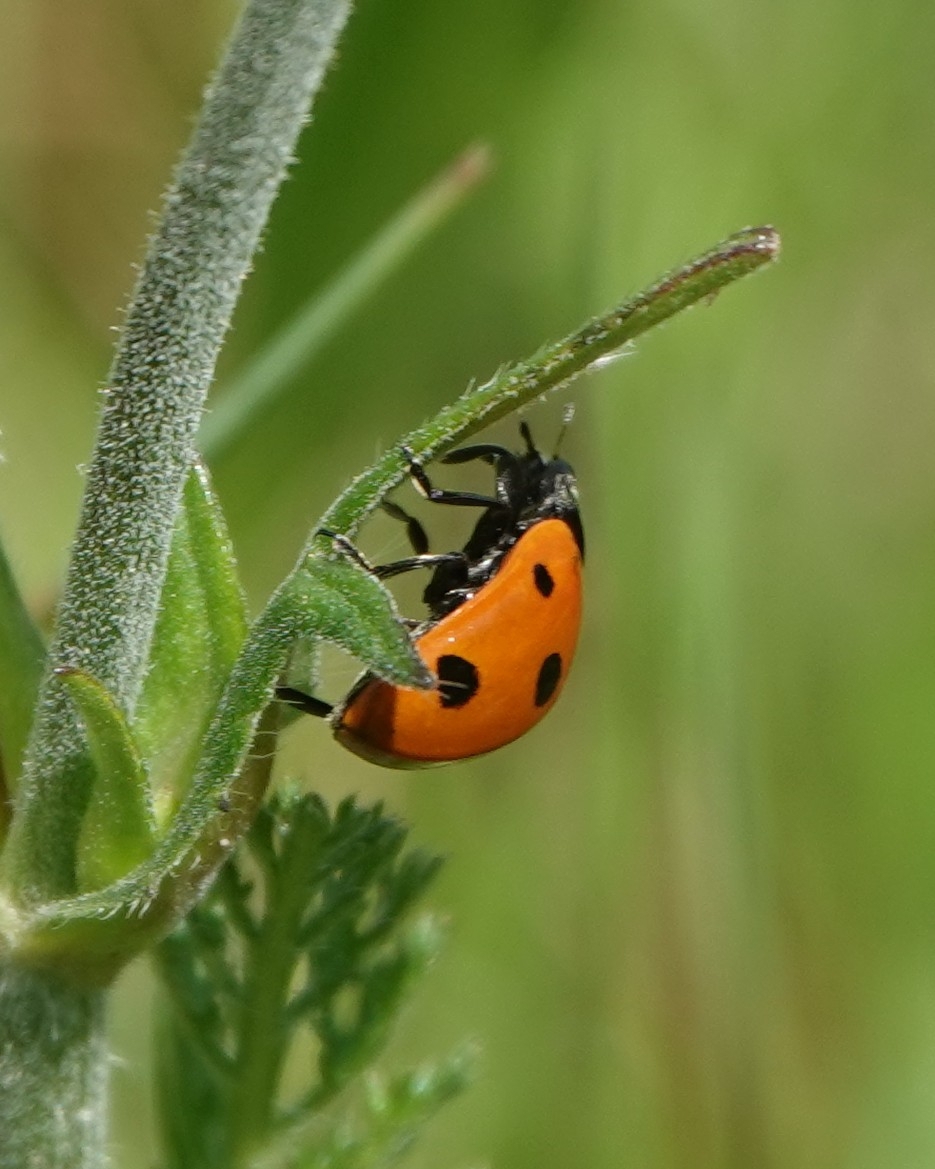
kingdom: Animalia
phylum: Arthropoda
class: Insecta
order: Coleoptera
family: Coccinellidae
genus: Coccinella
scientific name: Coccinella septempunctata
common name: Sevenspotted lady beetle
